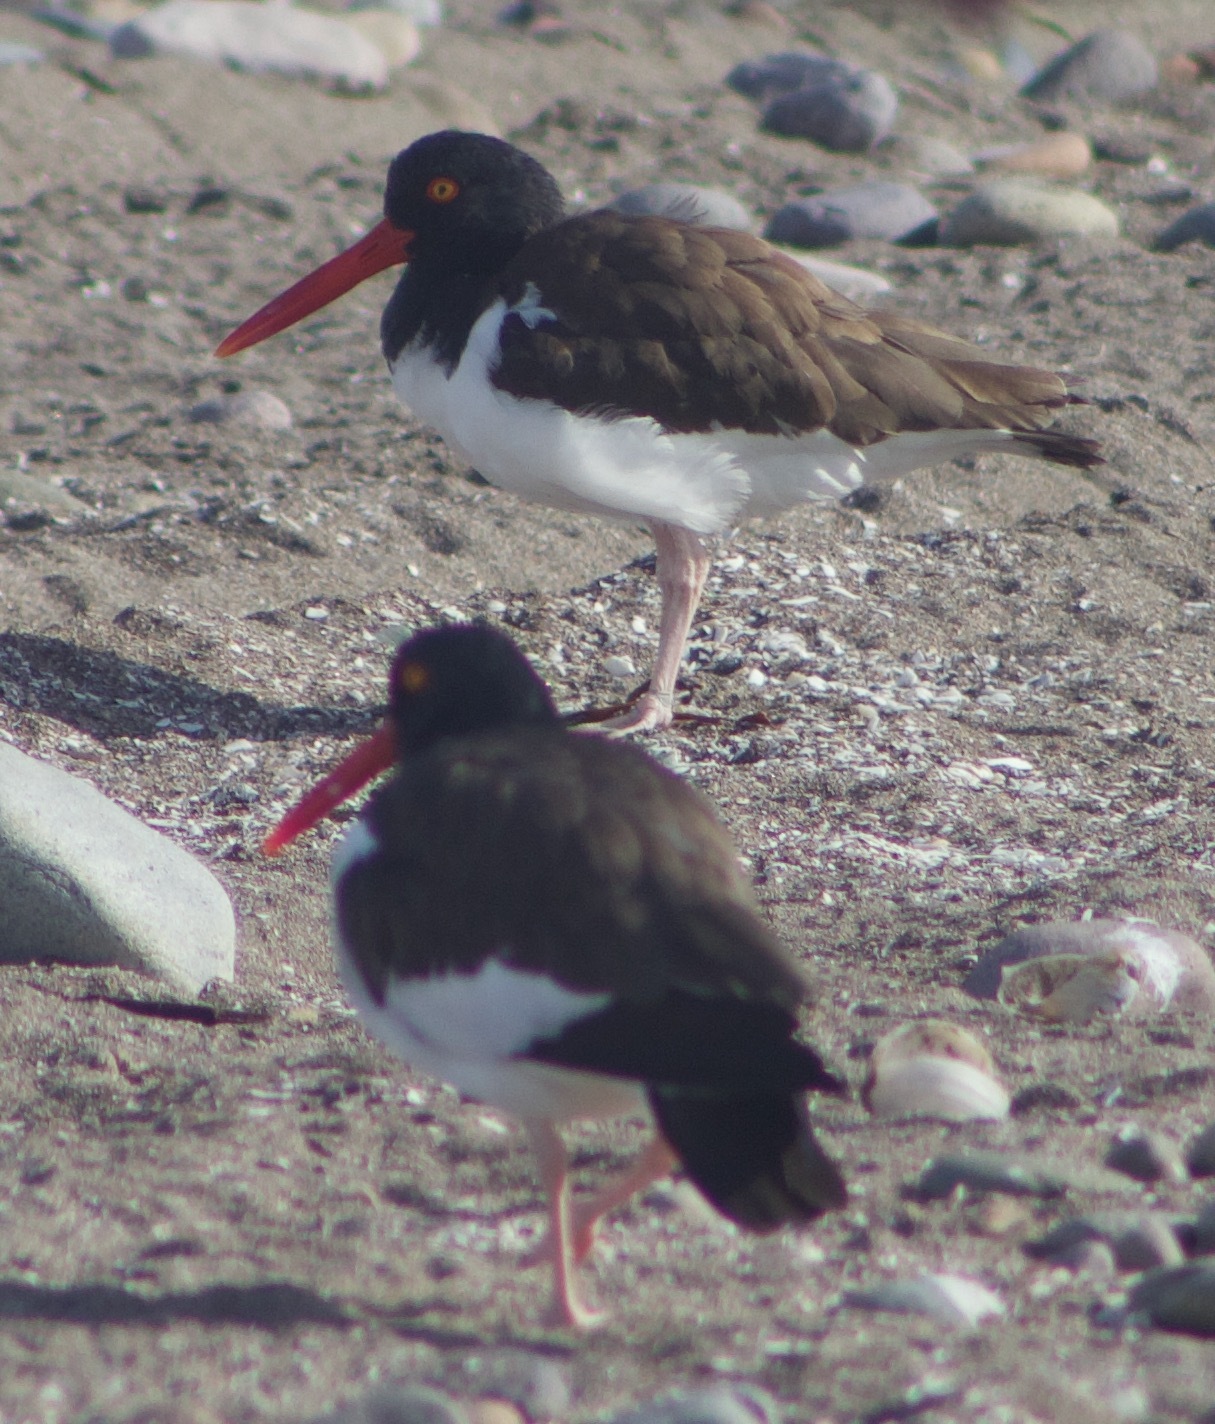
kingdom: Animalia
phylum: Chordata
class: Aves
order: Charadriiformes
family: Haematopodidae
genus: Haematopus
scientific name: Haematopus palliatus
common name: American oystercatcher
